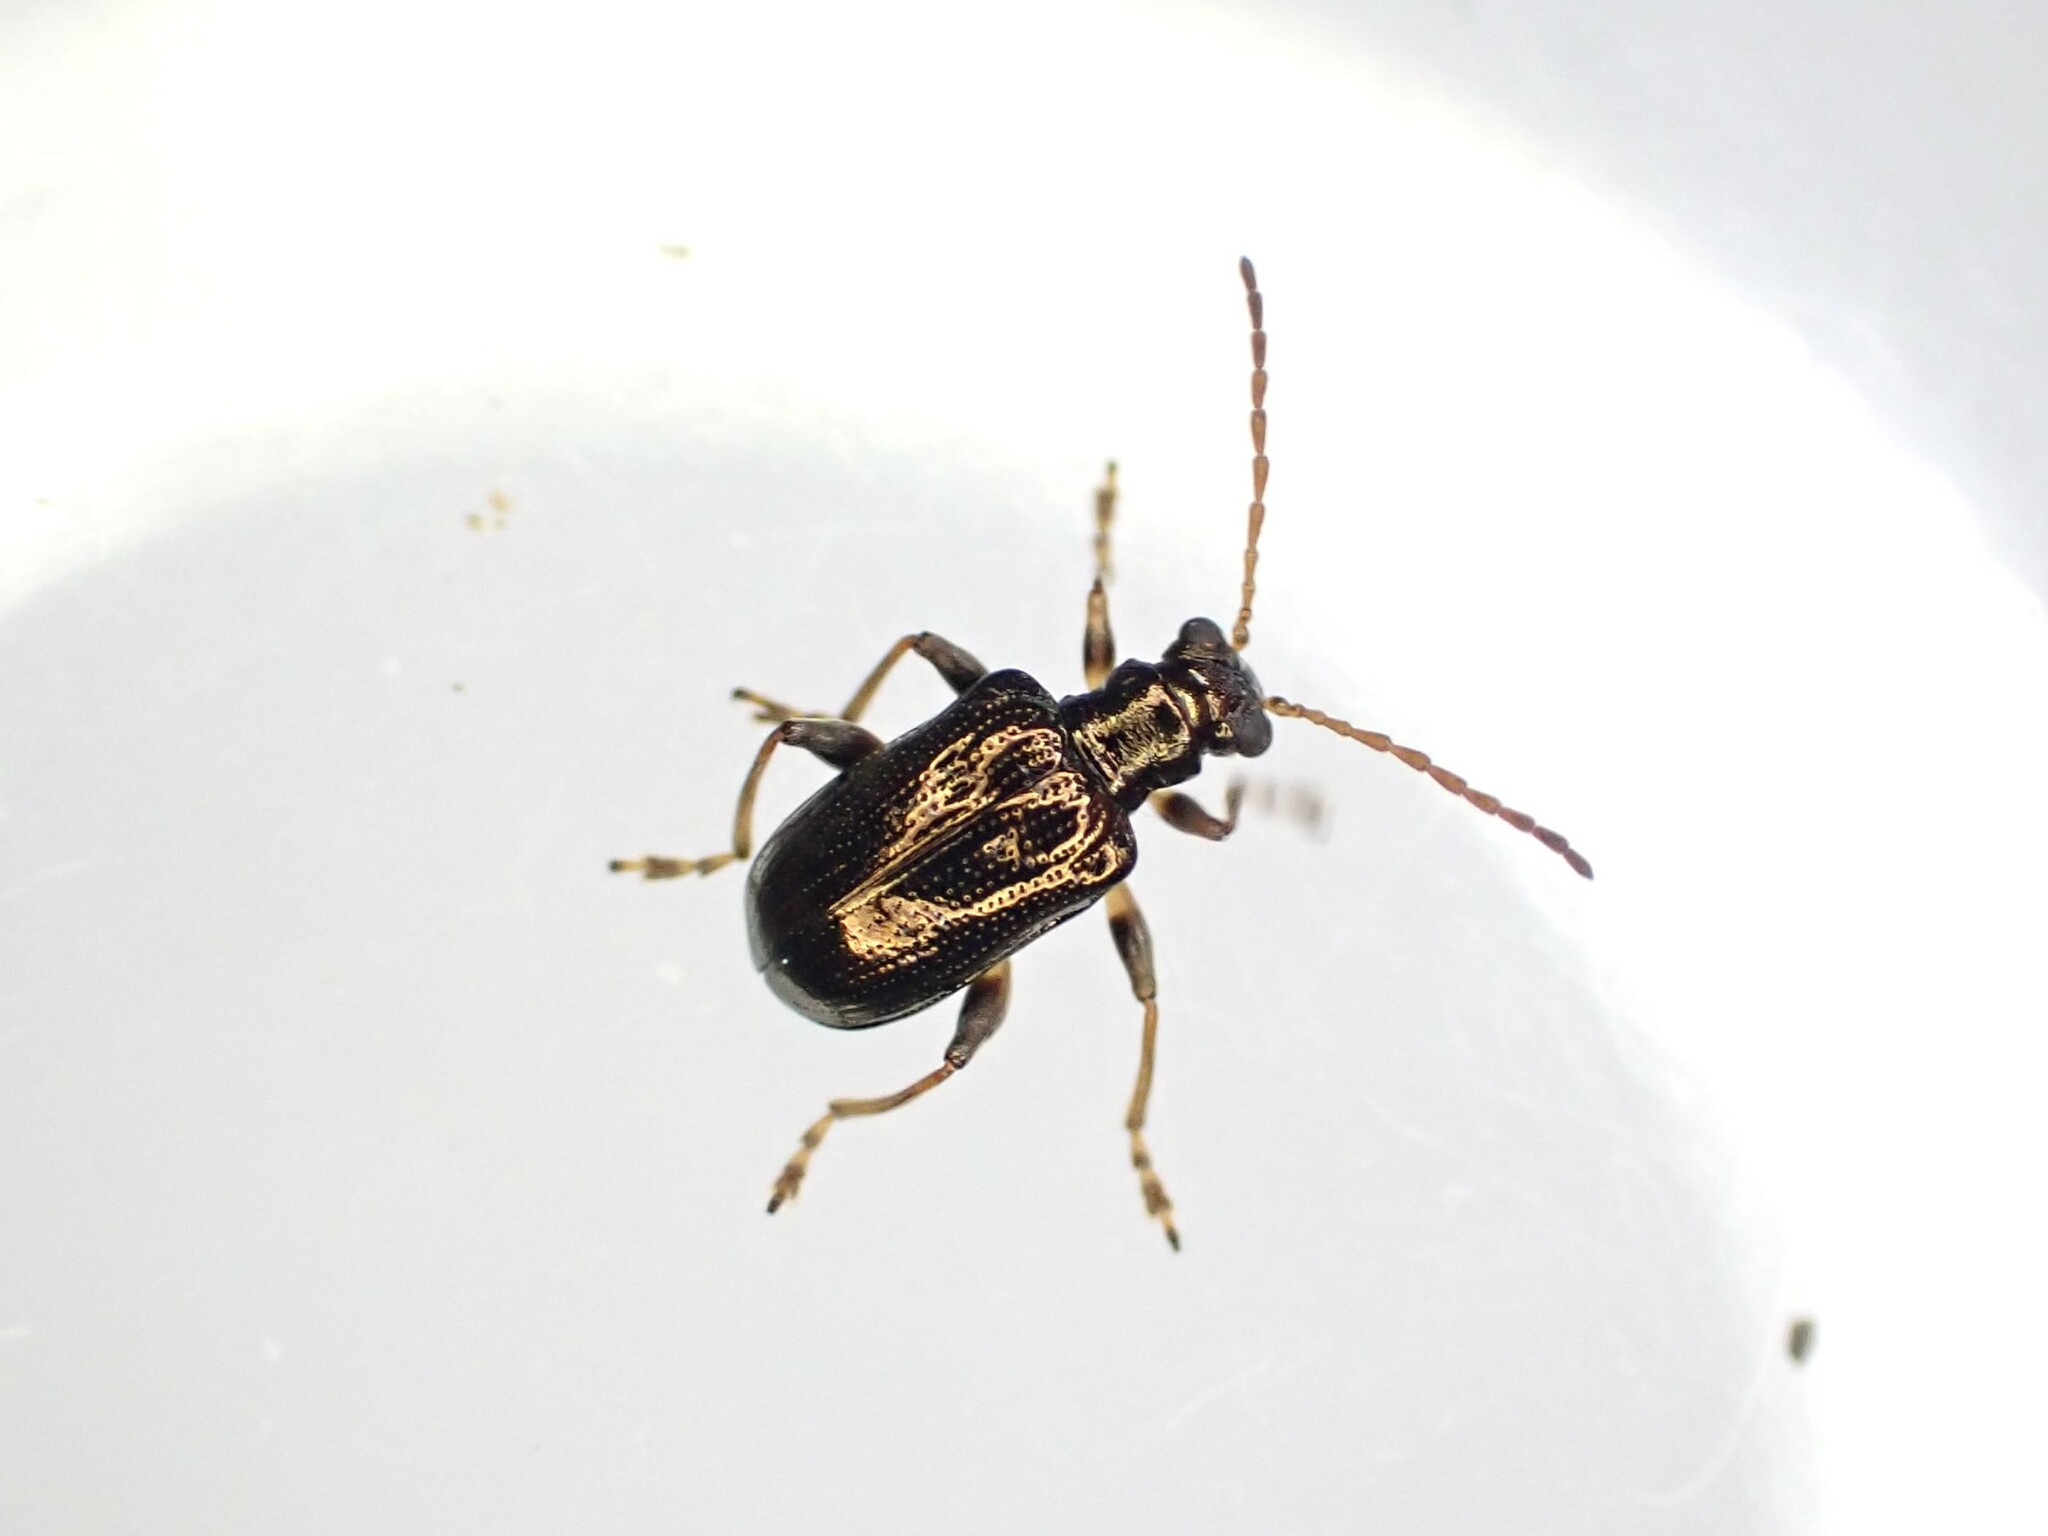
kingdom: Animalia
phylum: Arthropoda
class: Insecta
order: Coleoptera
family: Chrysomelidae
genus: Neolema
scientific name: Neolema ogloblini
